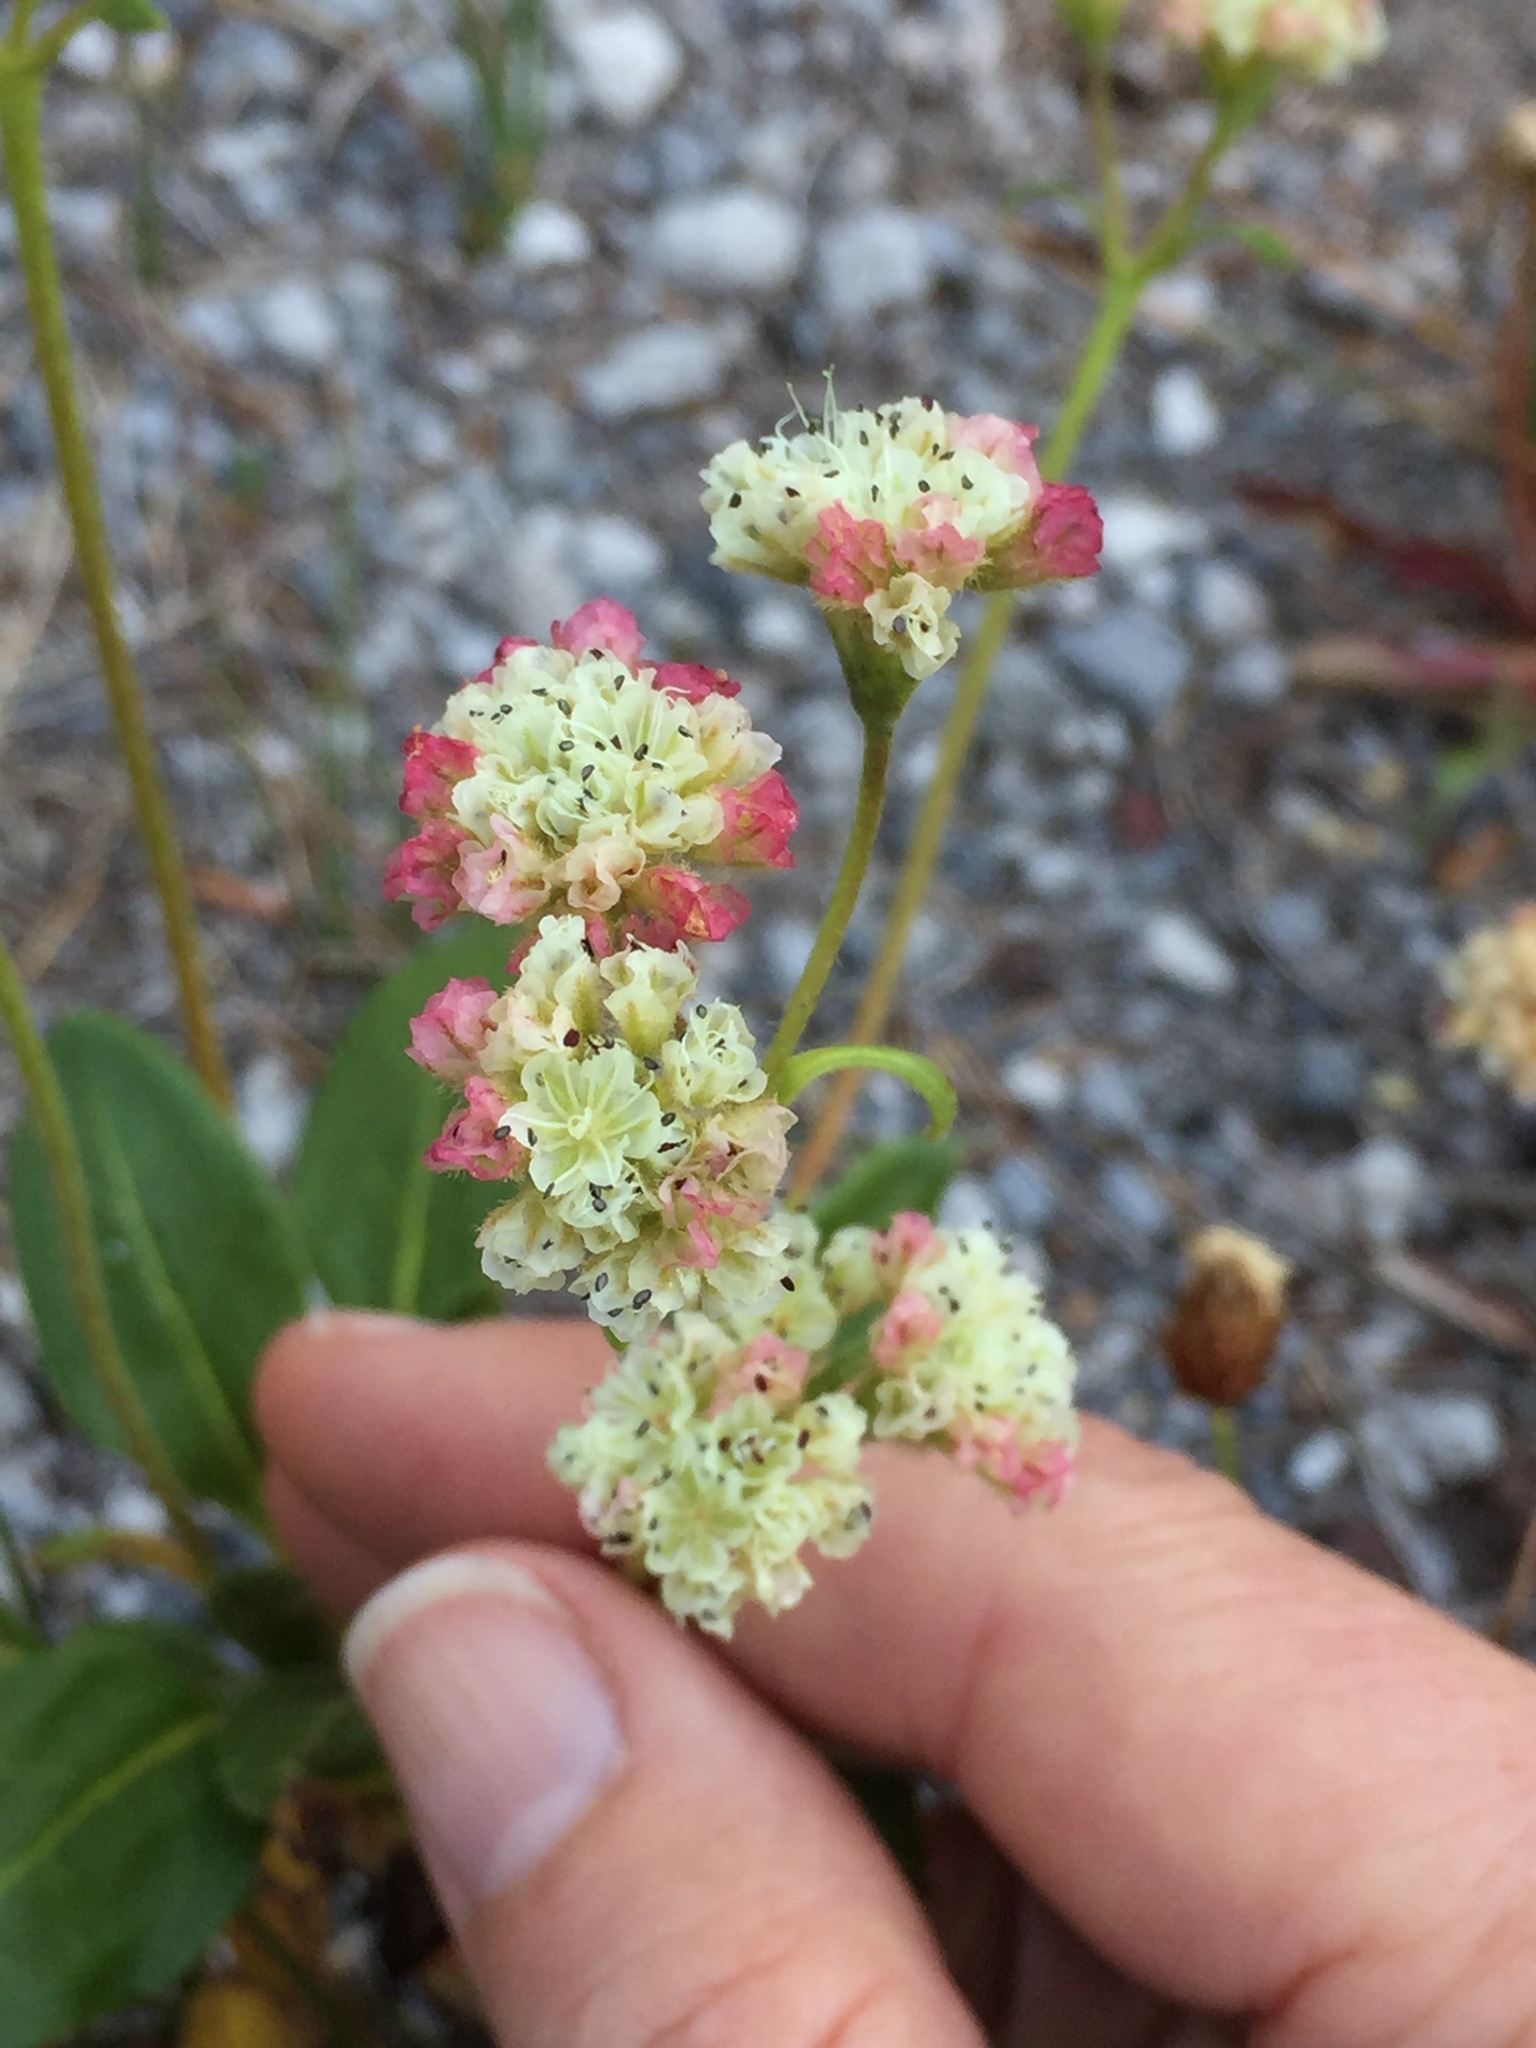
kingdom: Plantae
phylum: Tracheophyta
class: Magnoliopsida
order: Caryophyllales
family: Polygonaceae
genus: Eriogonum
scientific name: Eriogonum pyrolifolium
